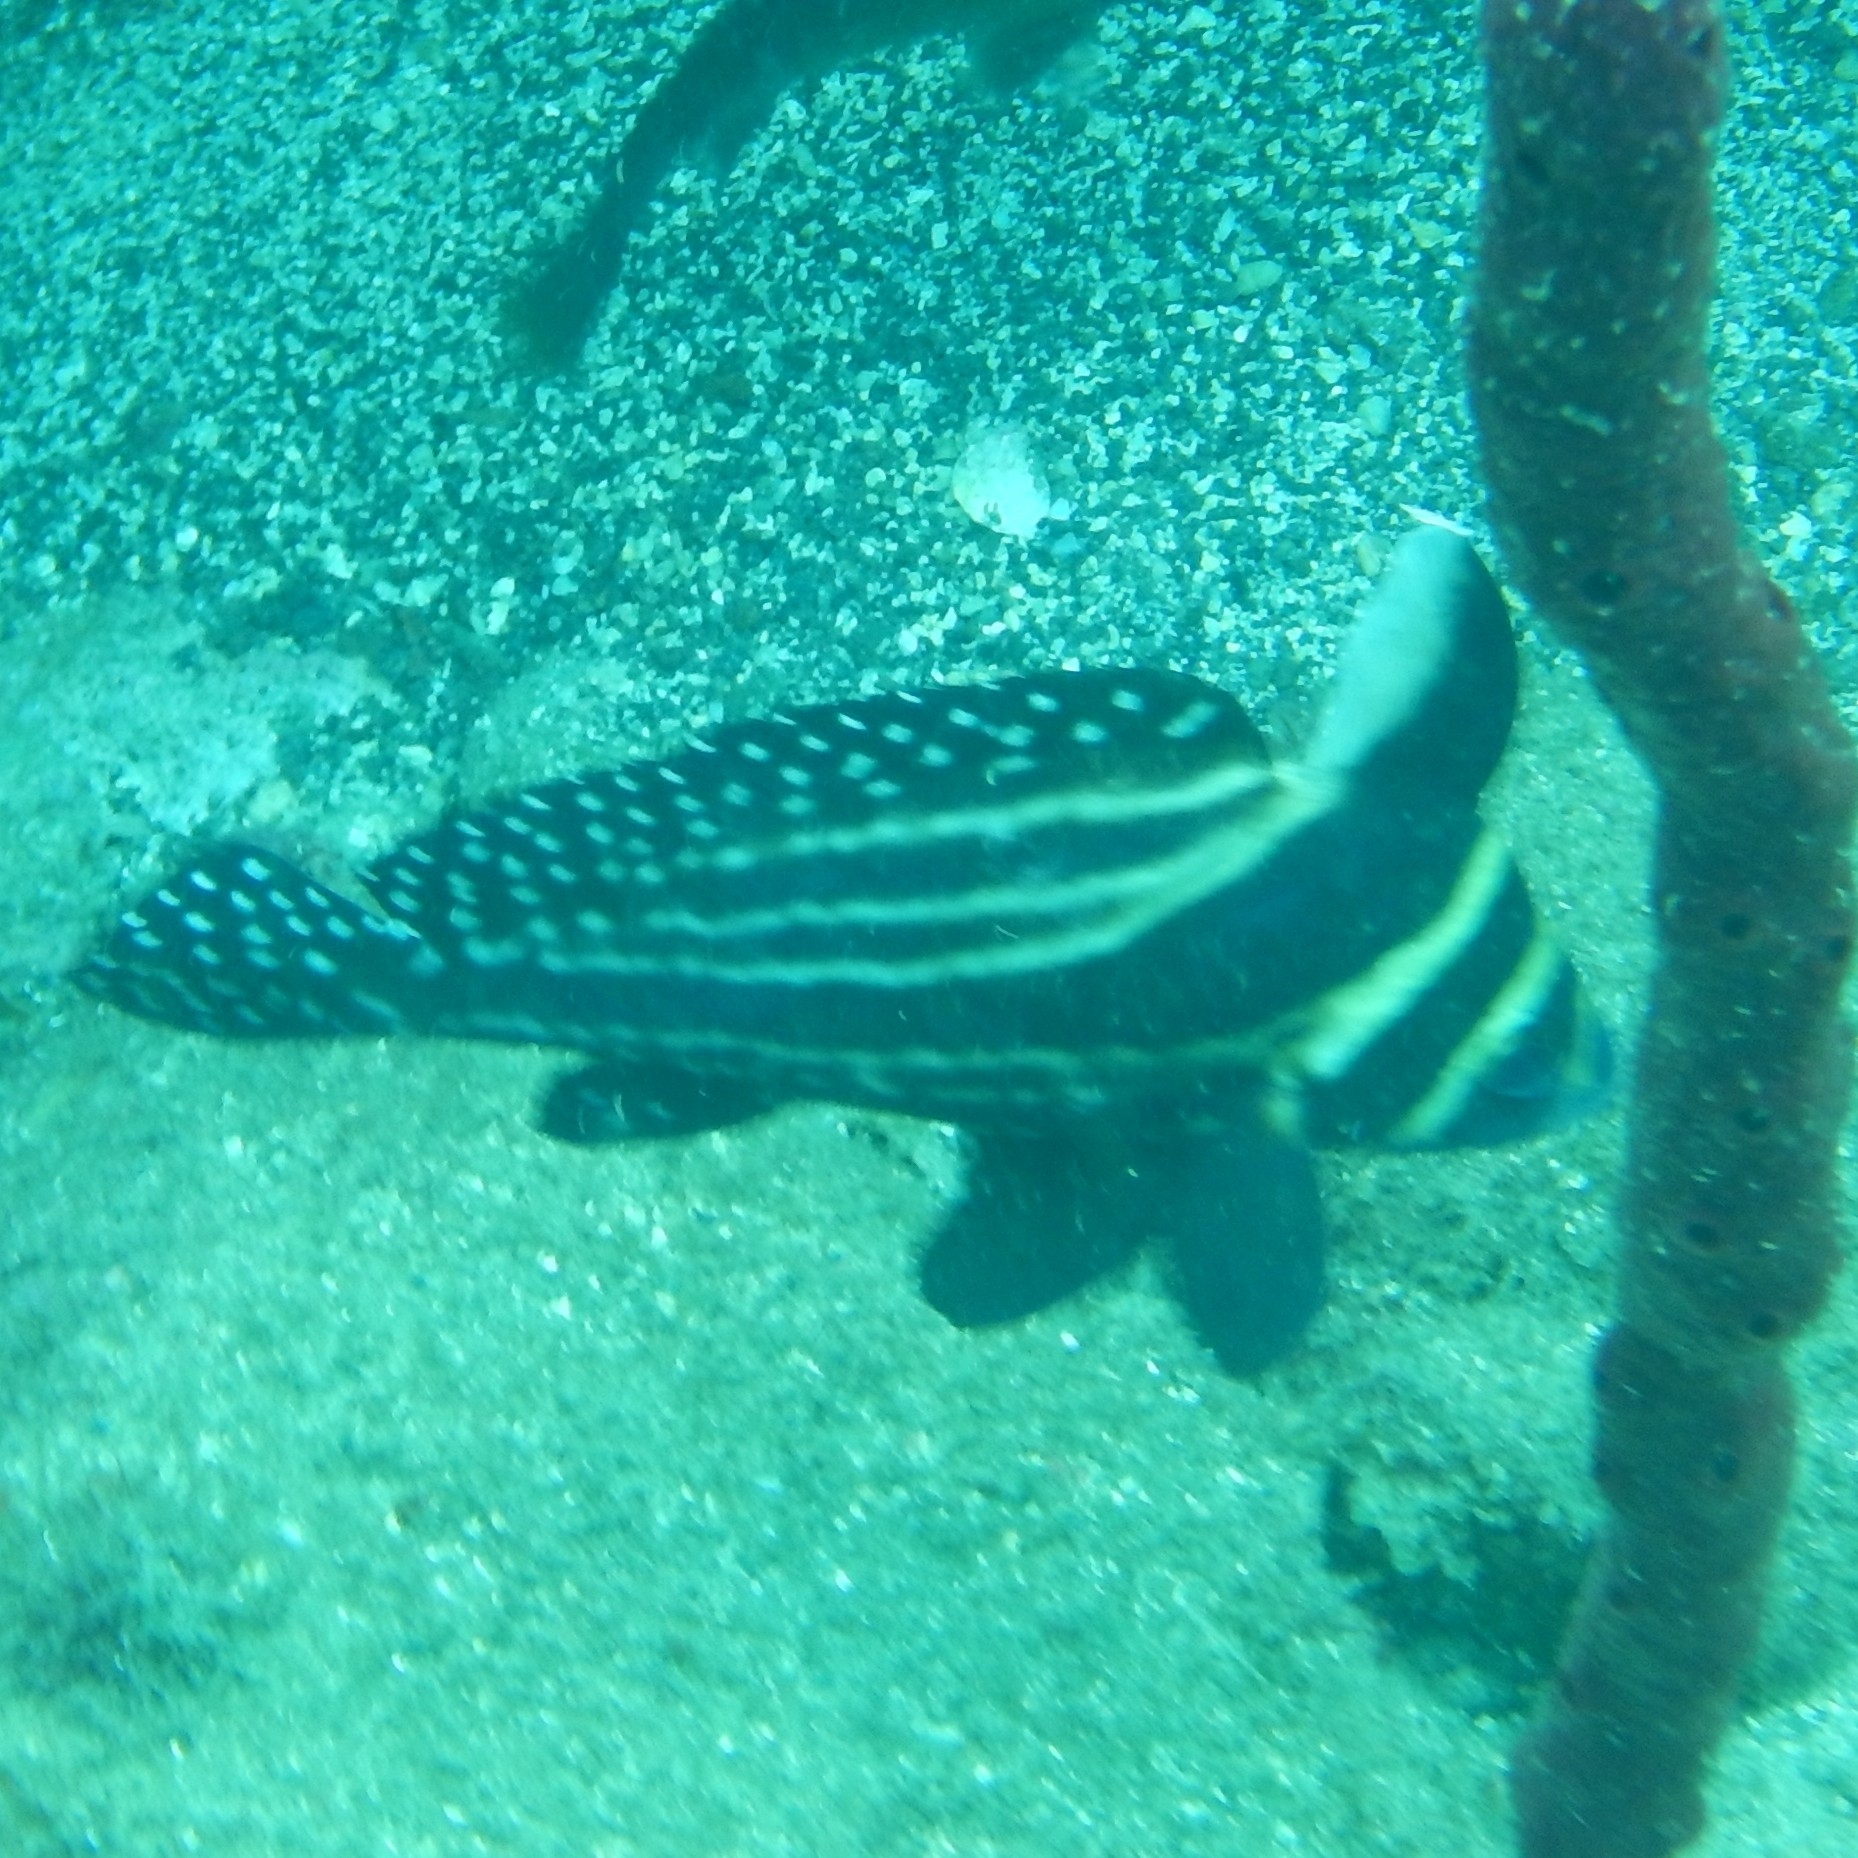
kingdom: Animalia
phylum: Chordata
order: Perciformes
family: Sciaenidae
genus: Equetus
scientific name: Equetus punctatus
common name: Spotted drum
